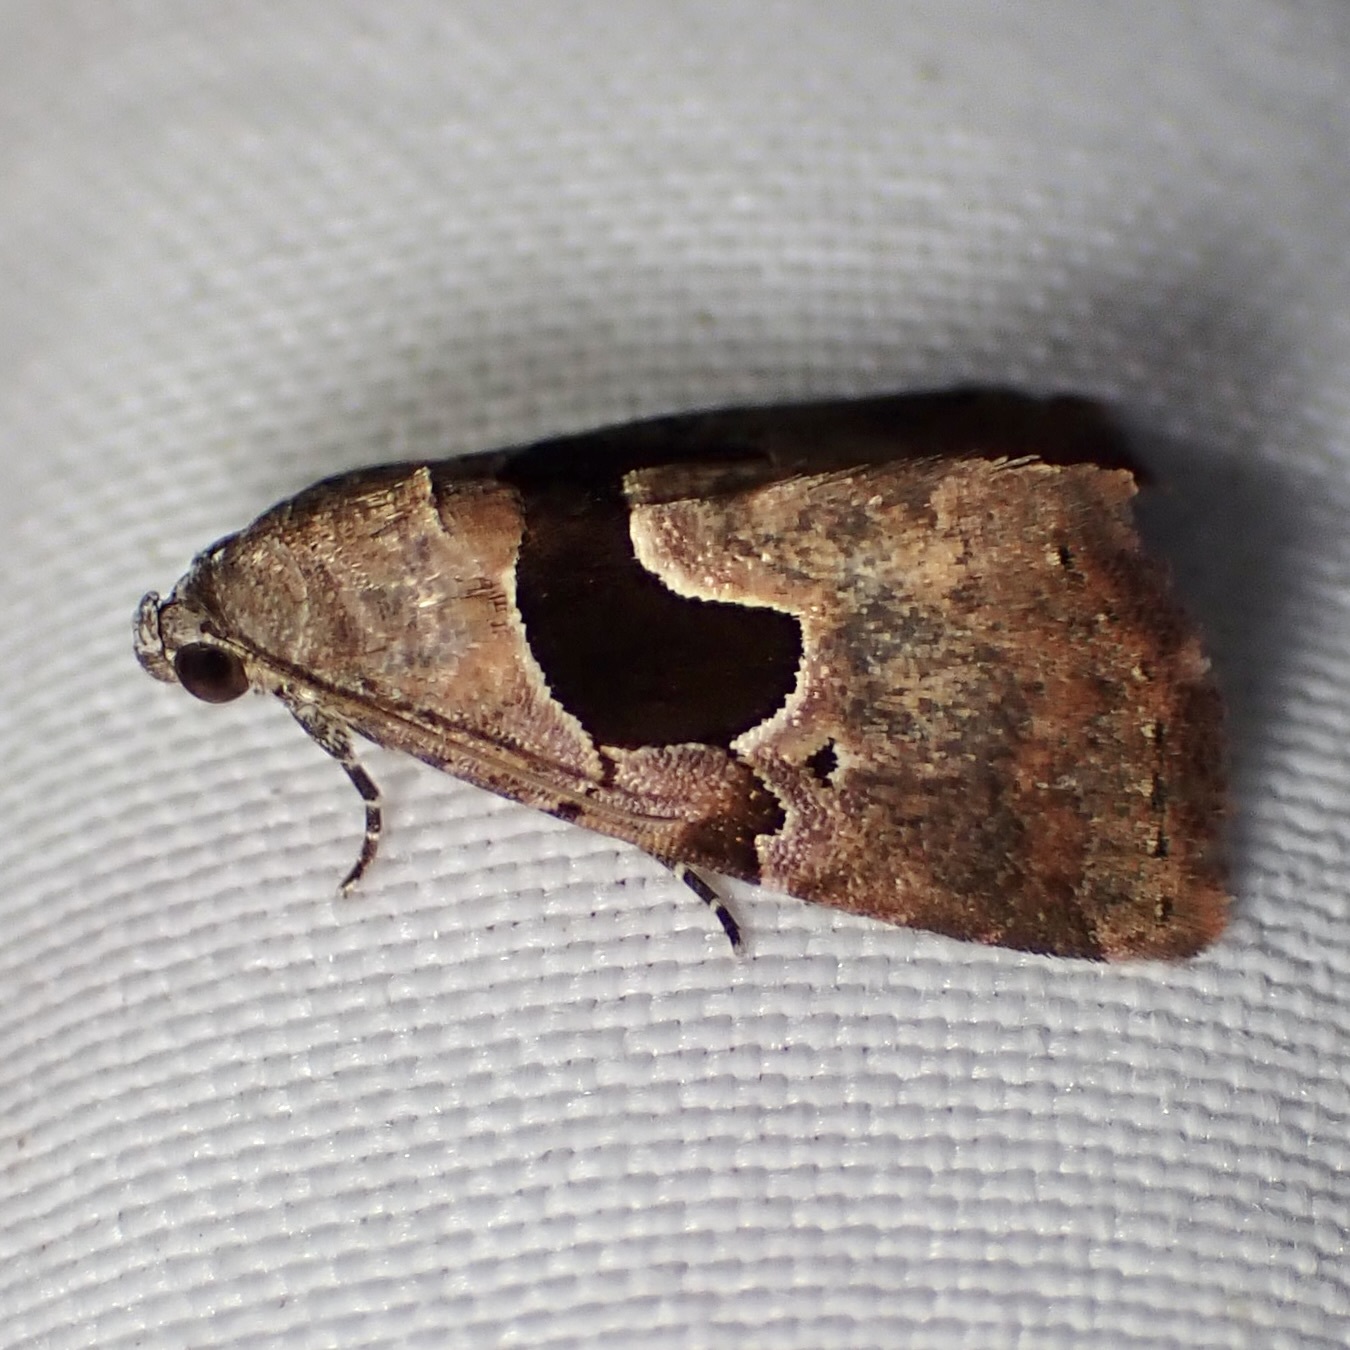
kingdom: Animalia
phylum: Arthropoda
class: Insecta
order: Lepidoptera
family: Noctuidae
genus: Tripudia
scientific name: Tripudia
